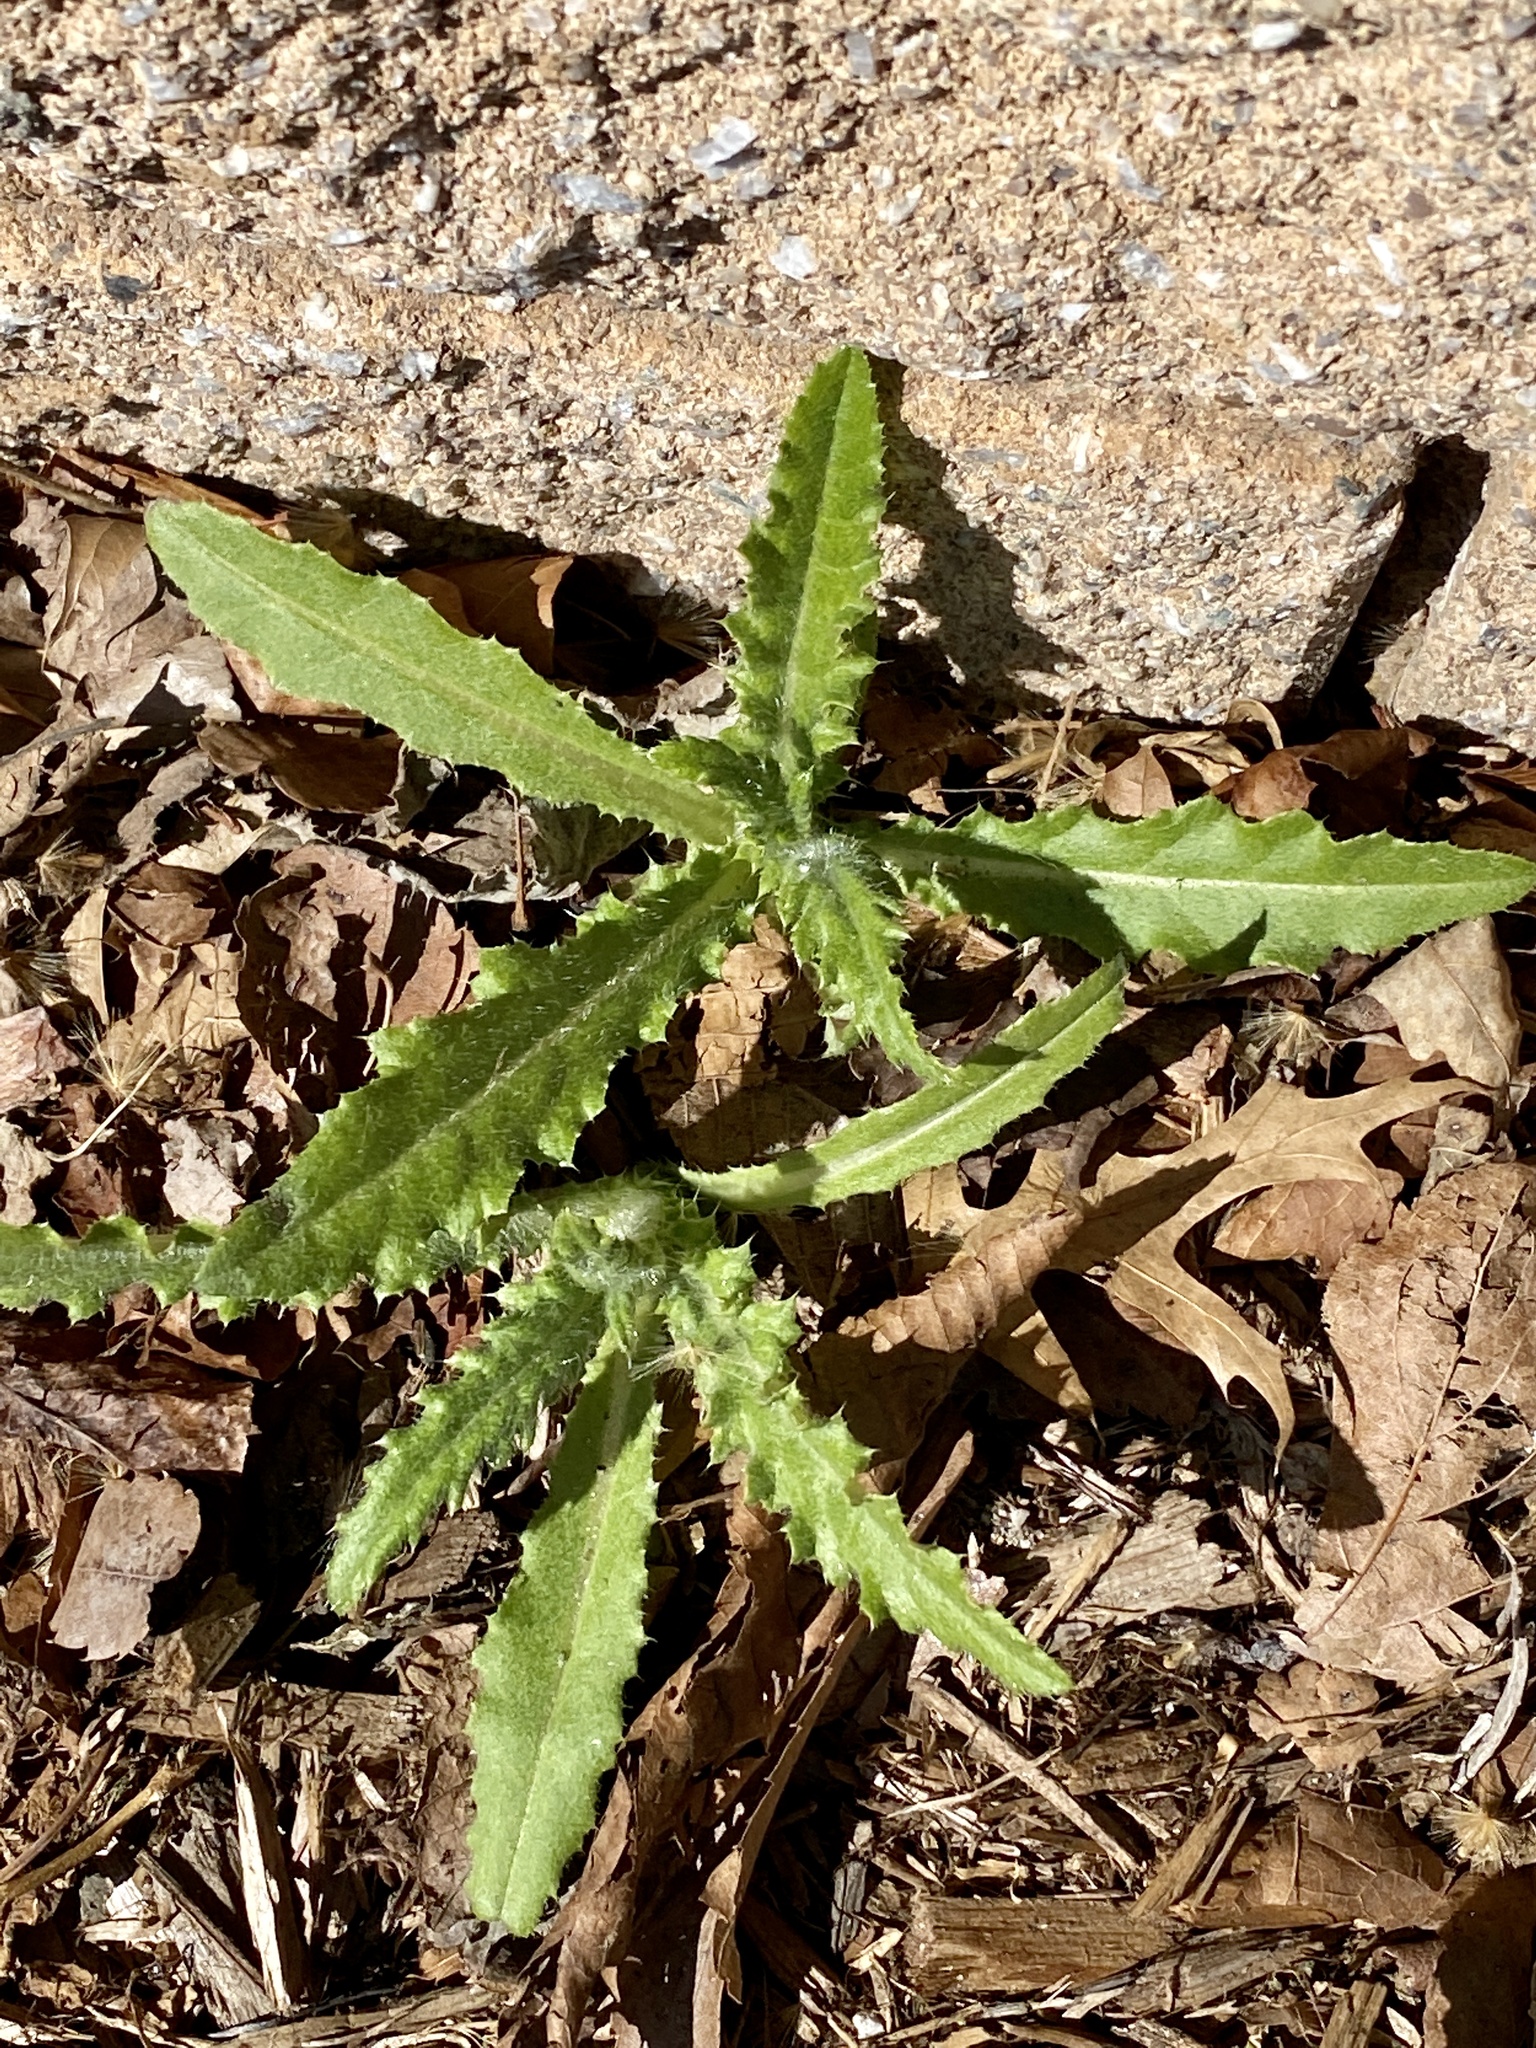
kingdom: Plantae
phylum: Tracheophyta
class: Magnoliopsida
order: Asterales
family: Asteraceae
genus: Cirsium
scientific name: Cirsium arvense
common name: Creeping thistle
